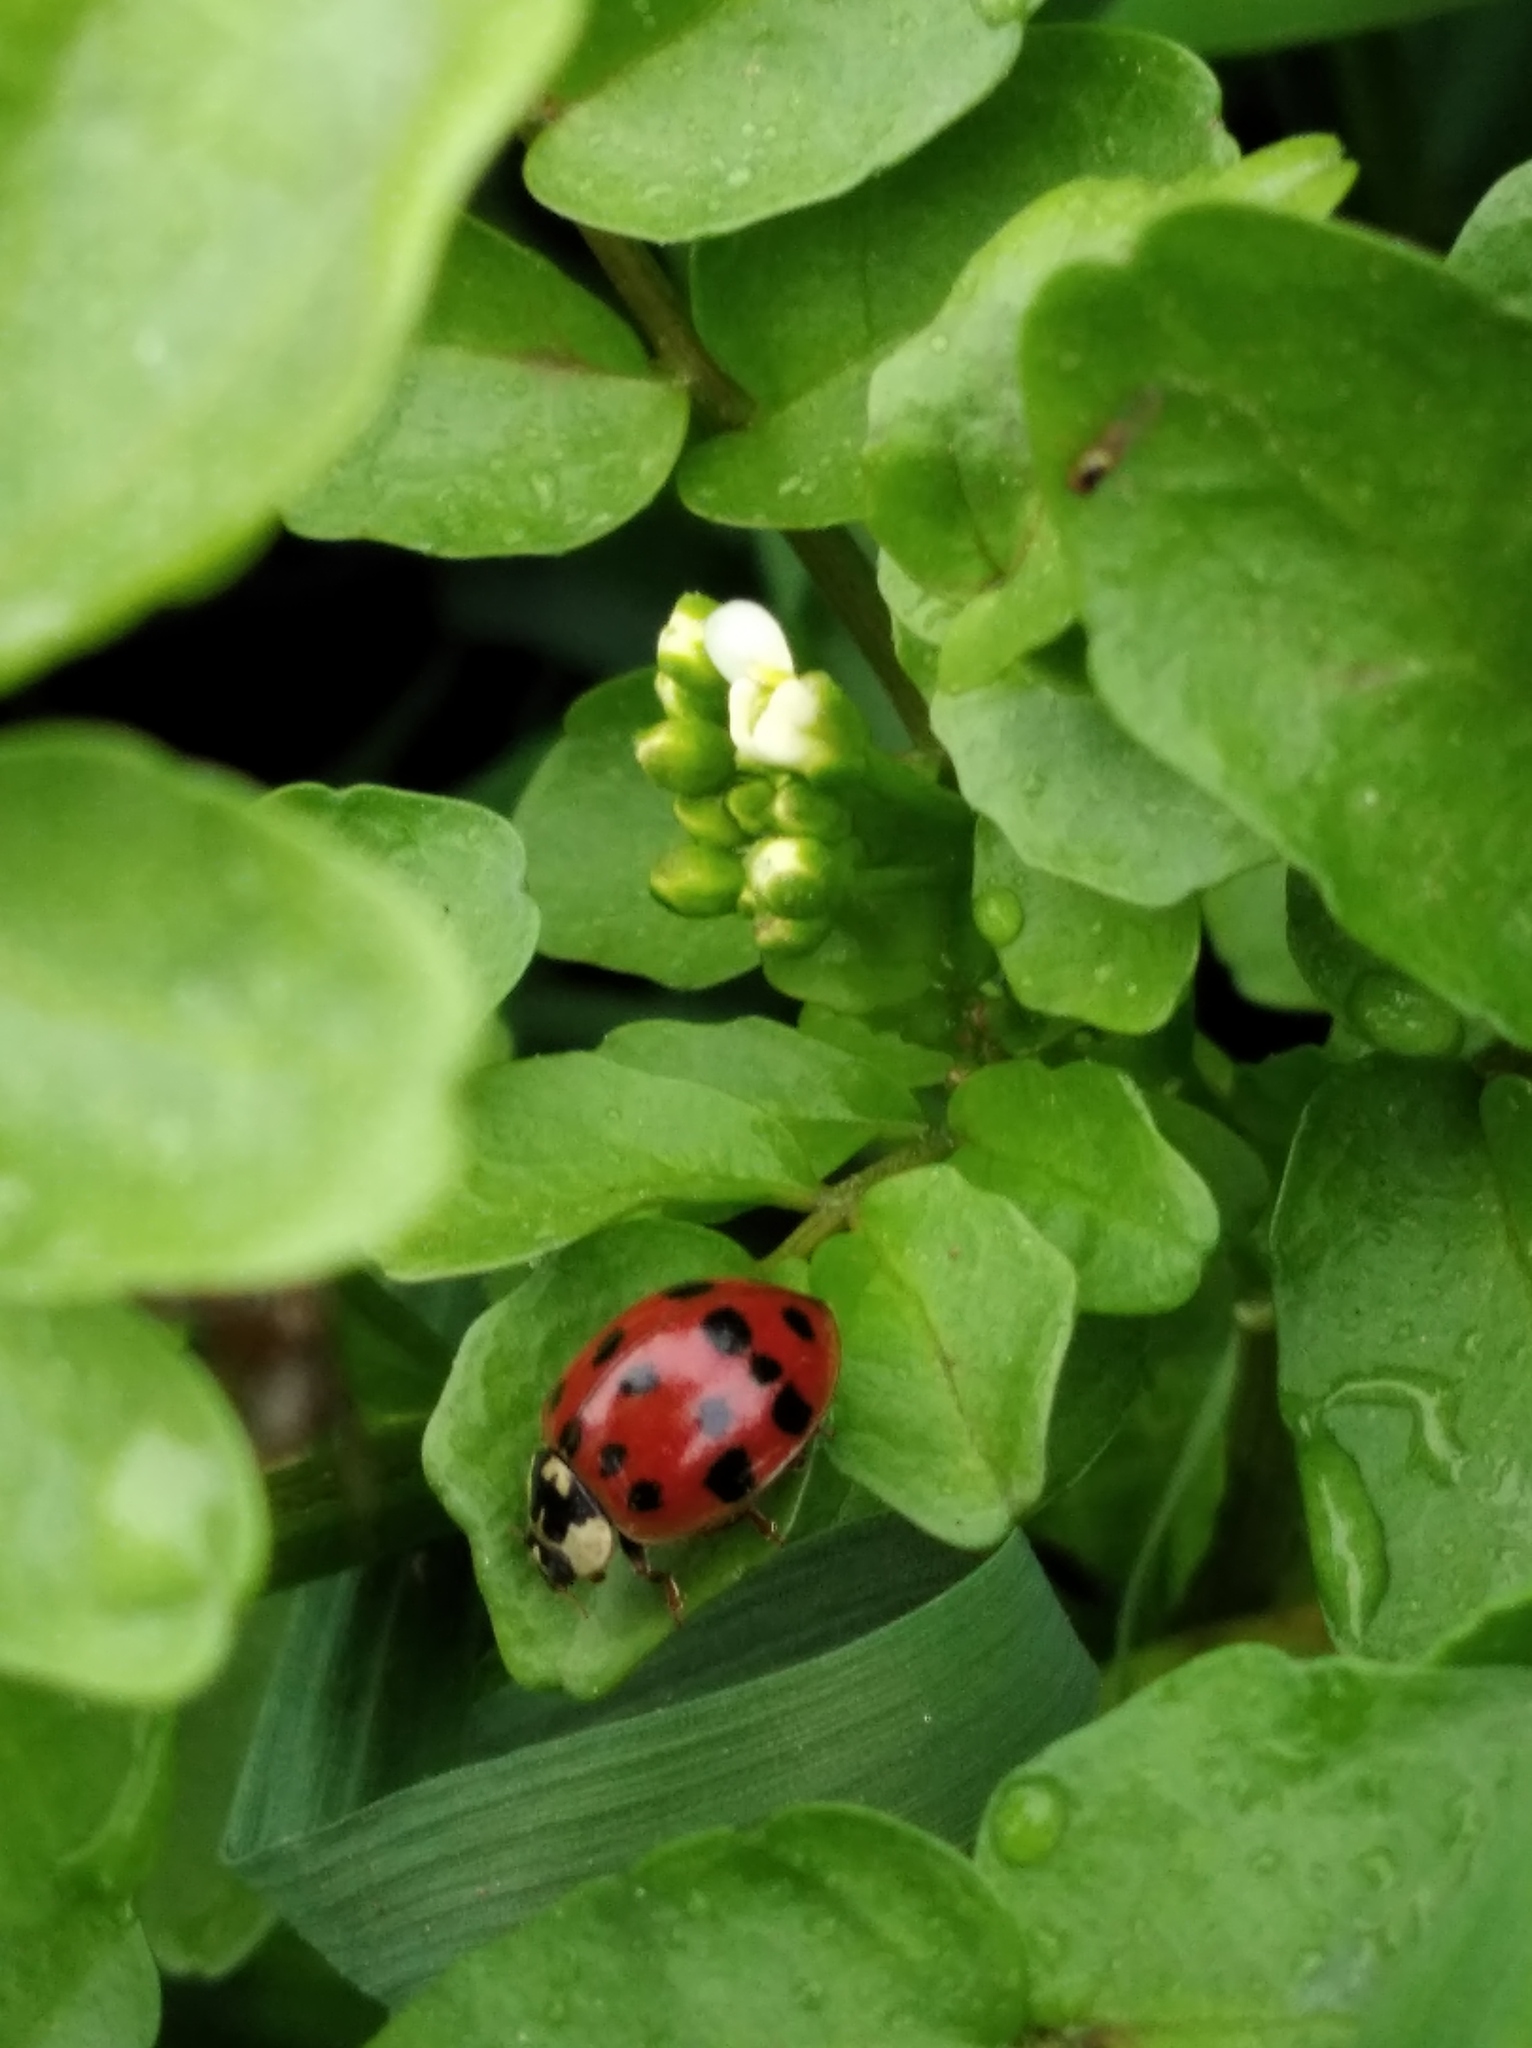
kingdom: Animalia
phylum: Arthropoda
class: Insecta
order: Coleoptera
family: Coccinellidae
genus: Harmonia
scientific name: Harmonia axyridis
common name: Harlequin ladybird
